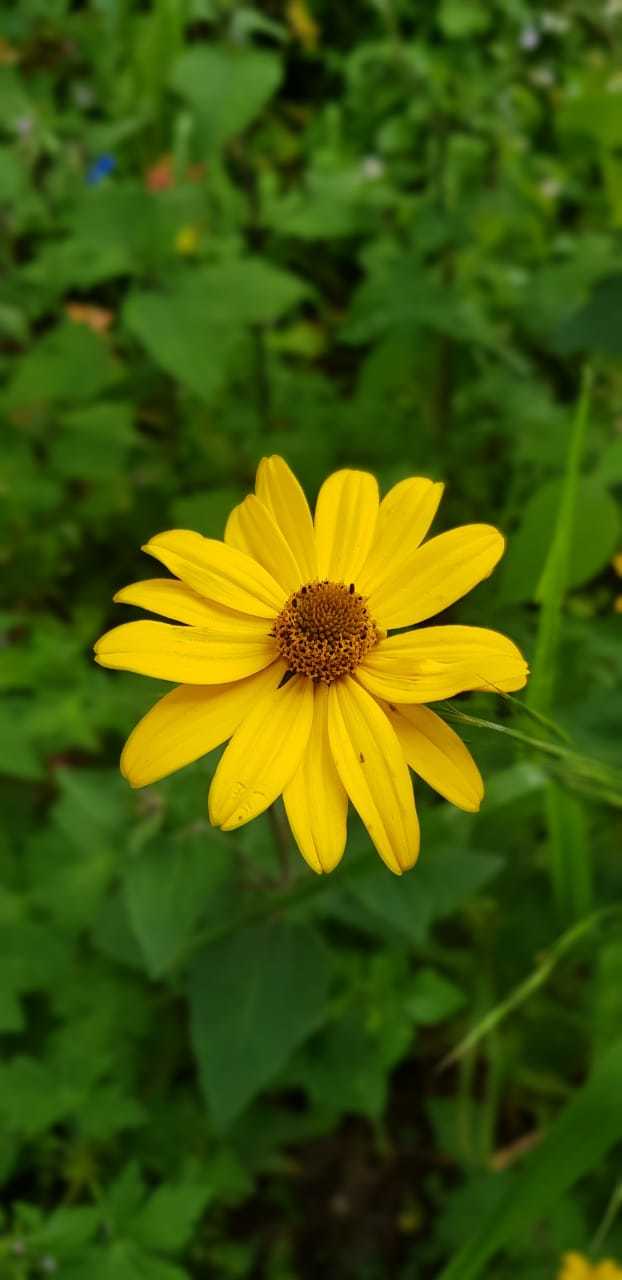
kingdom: Plantae
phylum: Tracheophyta
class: Magnoliopsida
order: Asterales
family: Asteraceae
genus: Heliopsis
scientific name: Heliopsis buphthalmoides
